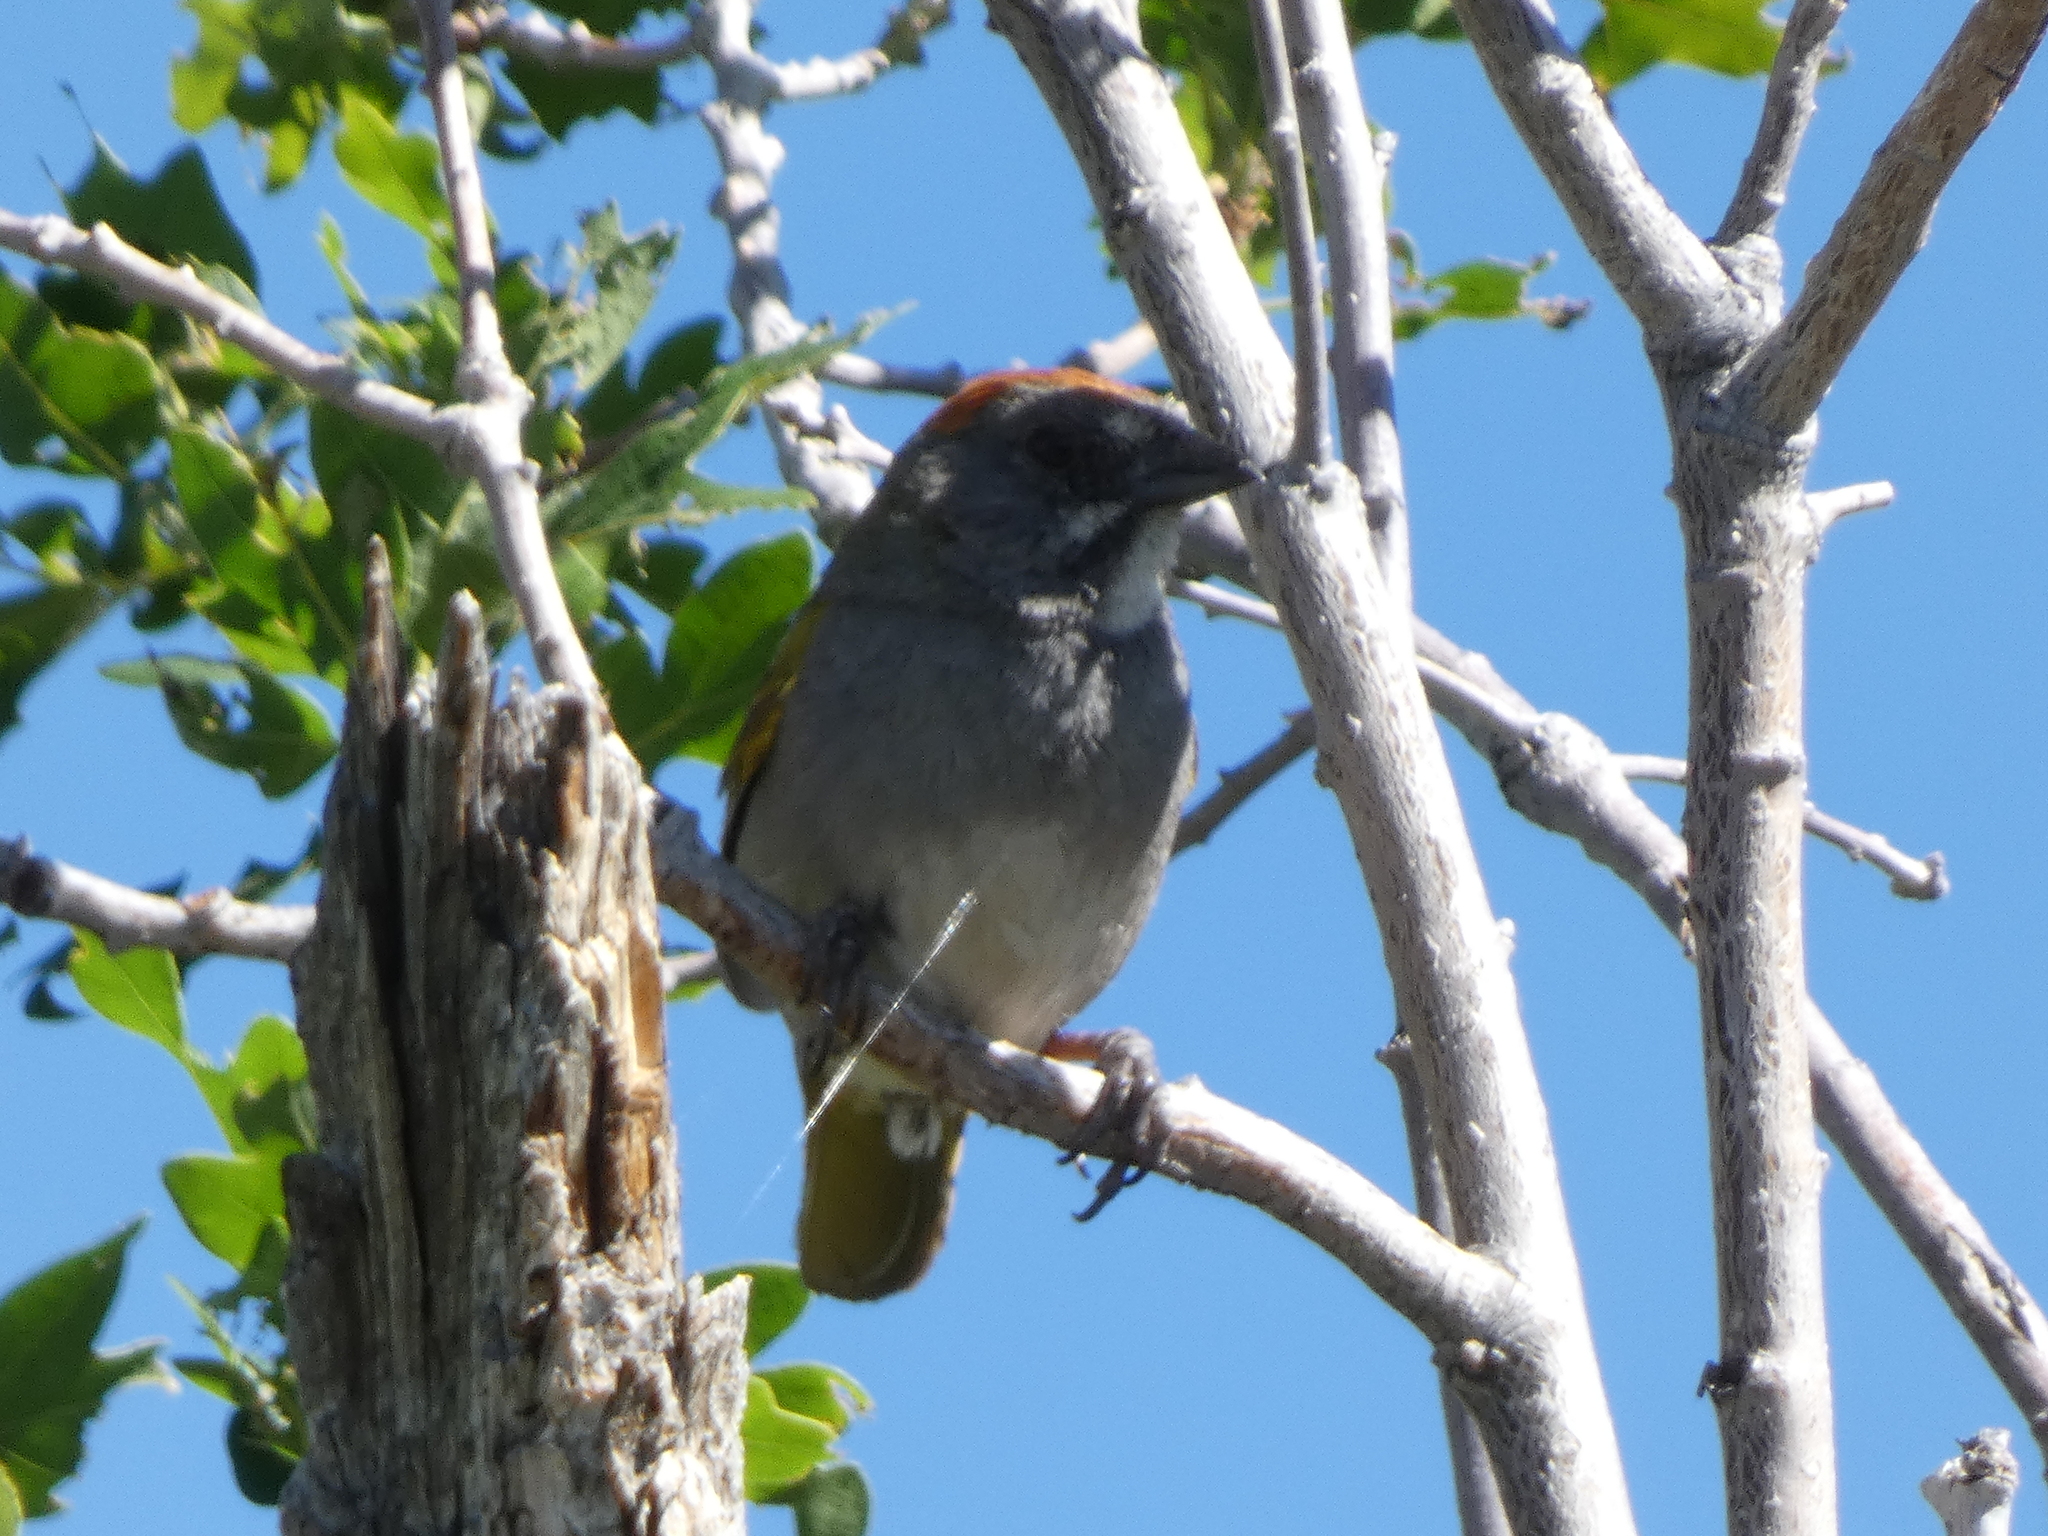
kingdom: Animalia
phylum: Chordata
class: Aves
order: Passeriformes
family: Passerellidae
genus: Pipilo
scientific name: Pipilo chlorurus
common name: Green-tailed towhee
